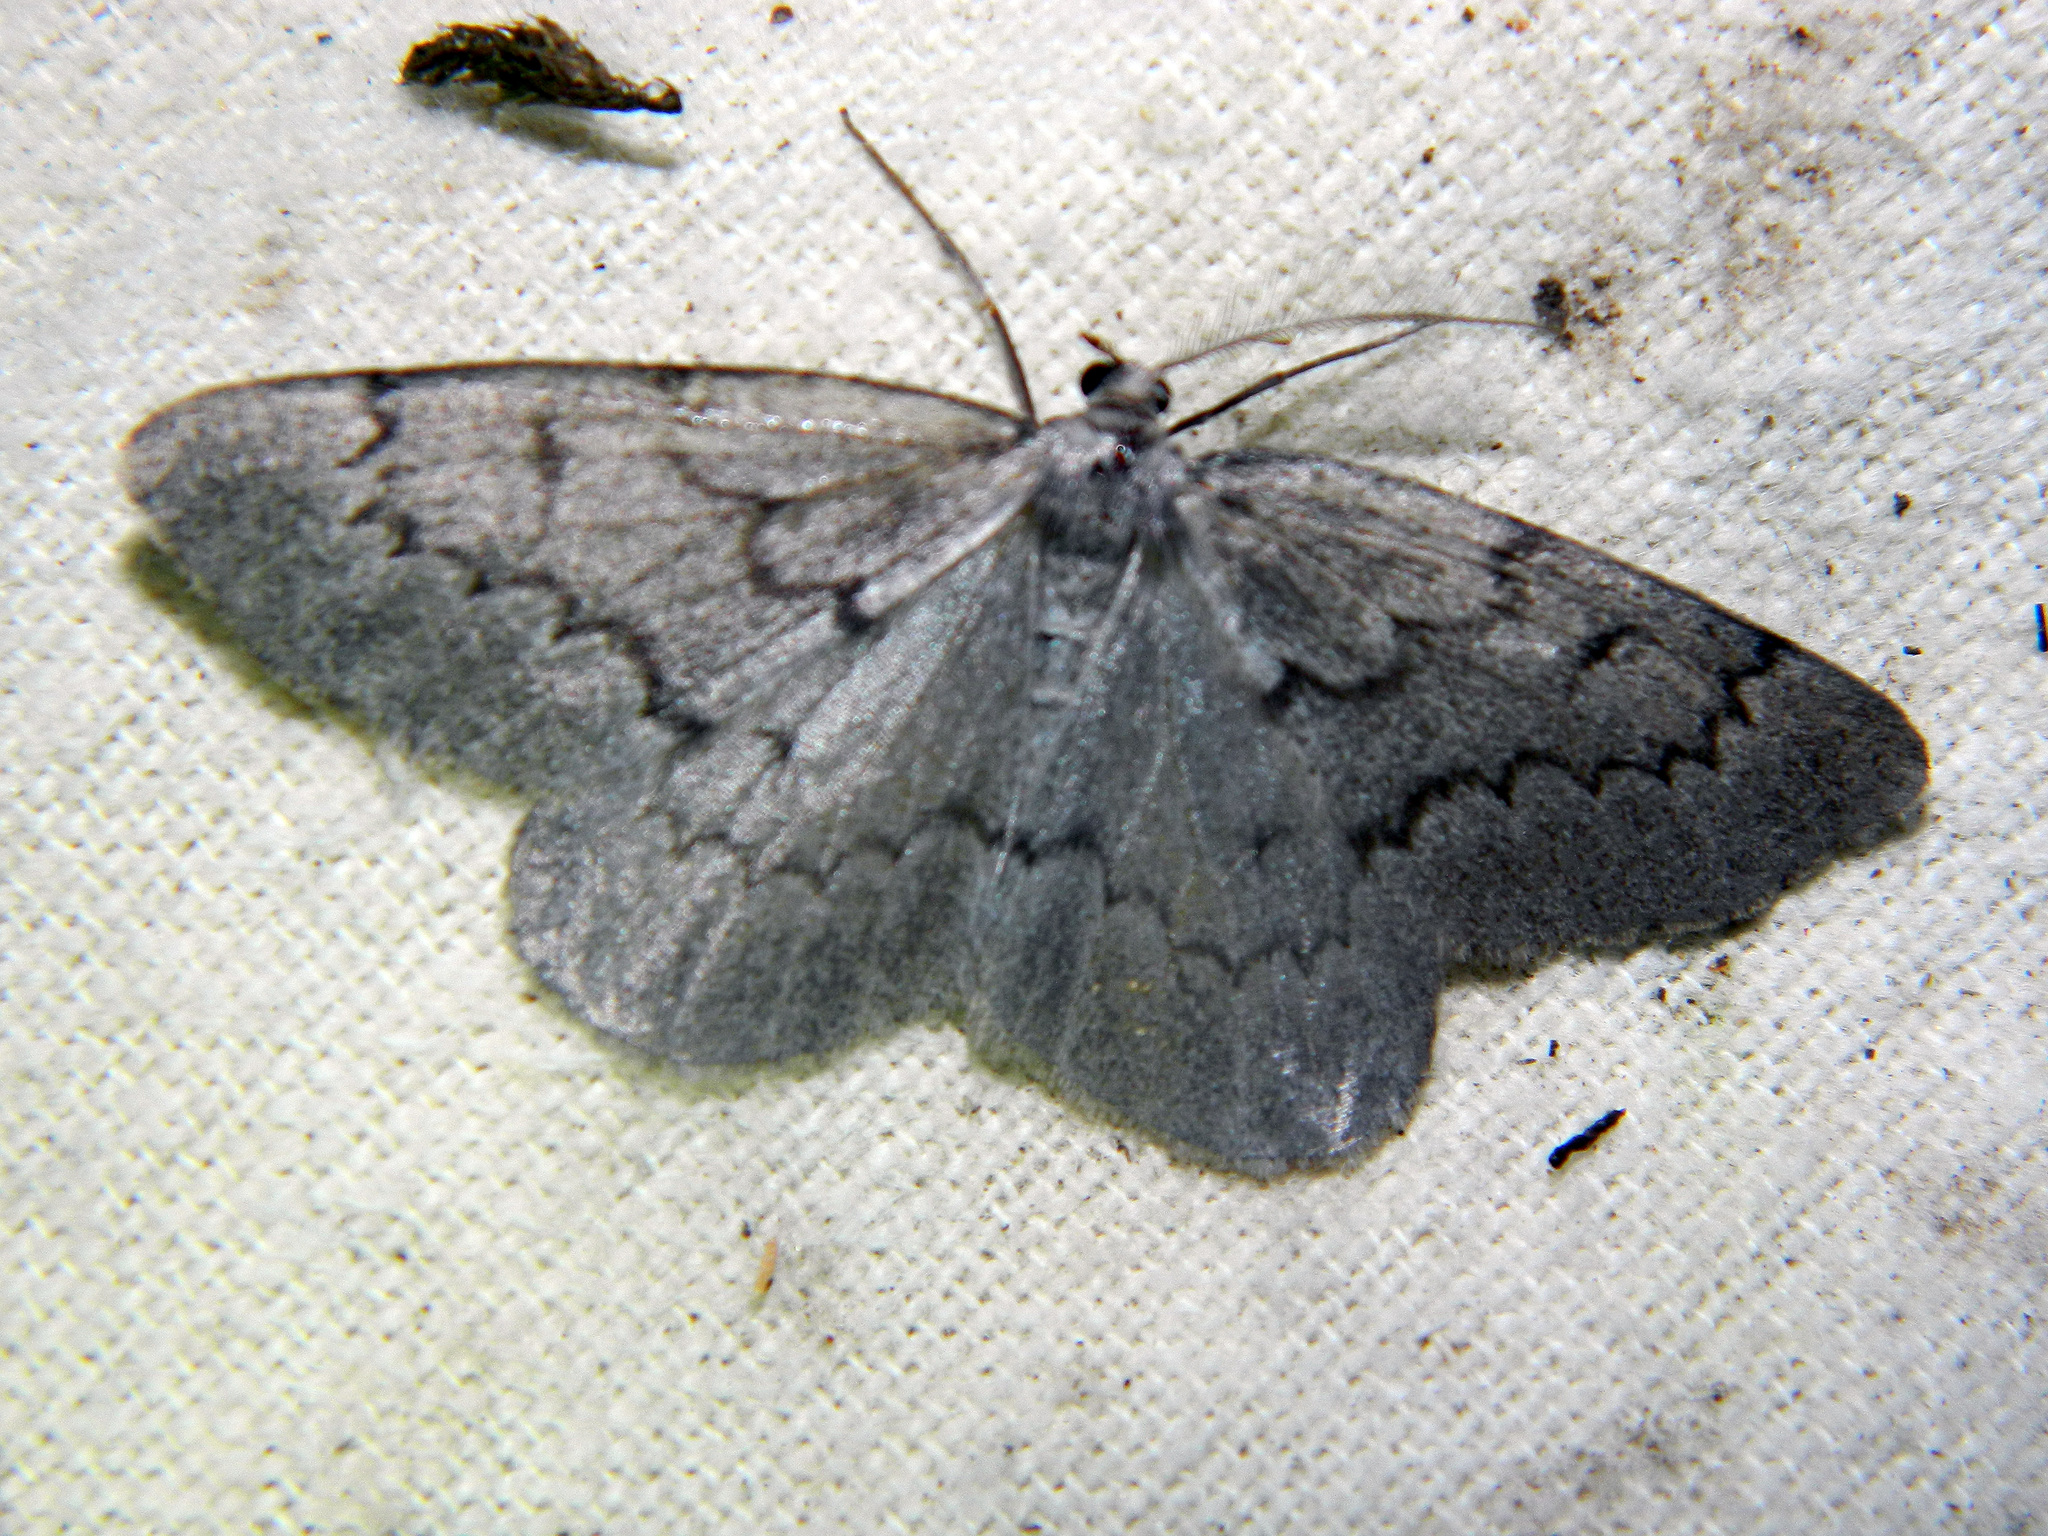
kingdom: Animalia
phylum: Arthropoda
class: Insecta
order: Lepidoptera
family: Geometridae
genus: Nepytia
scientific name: Nepytia pellucidaria
